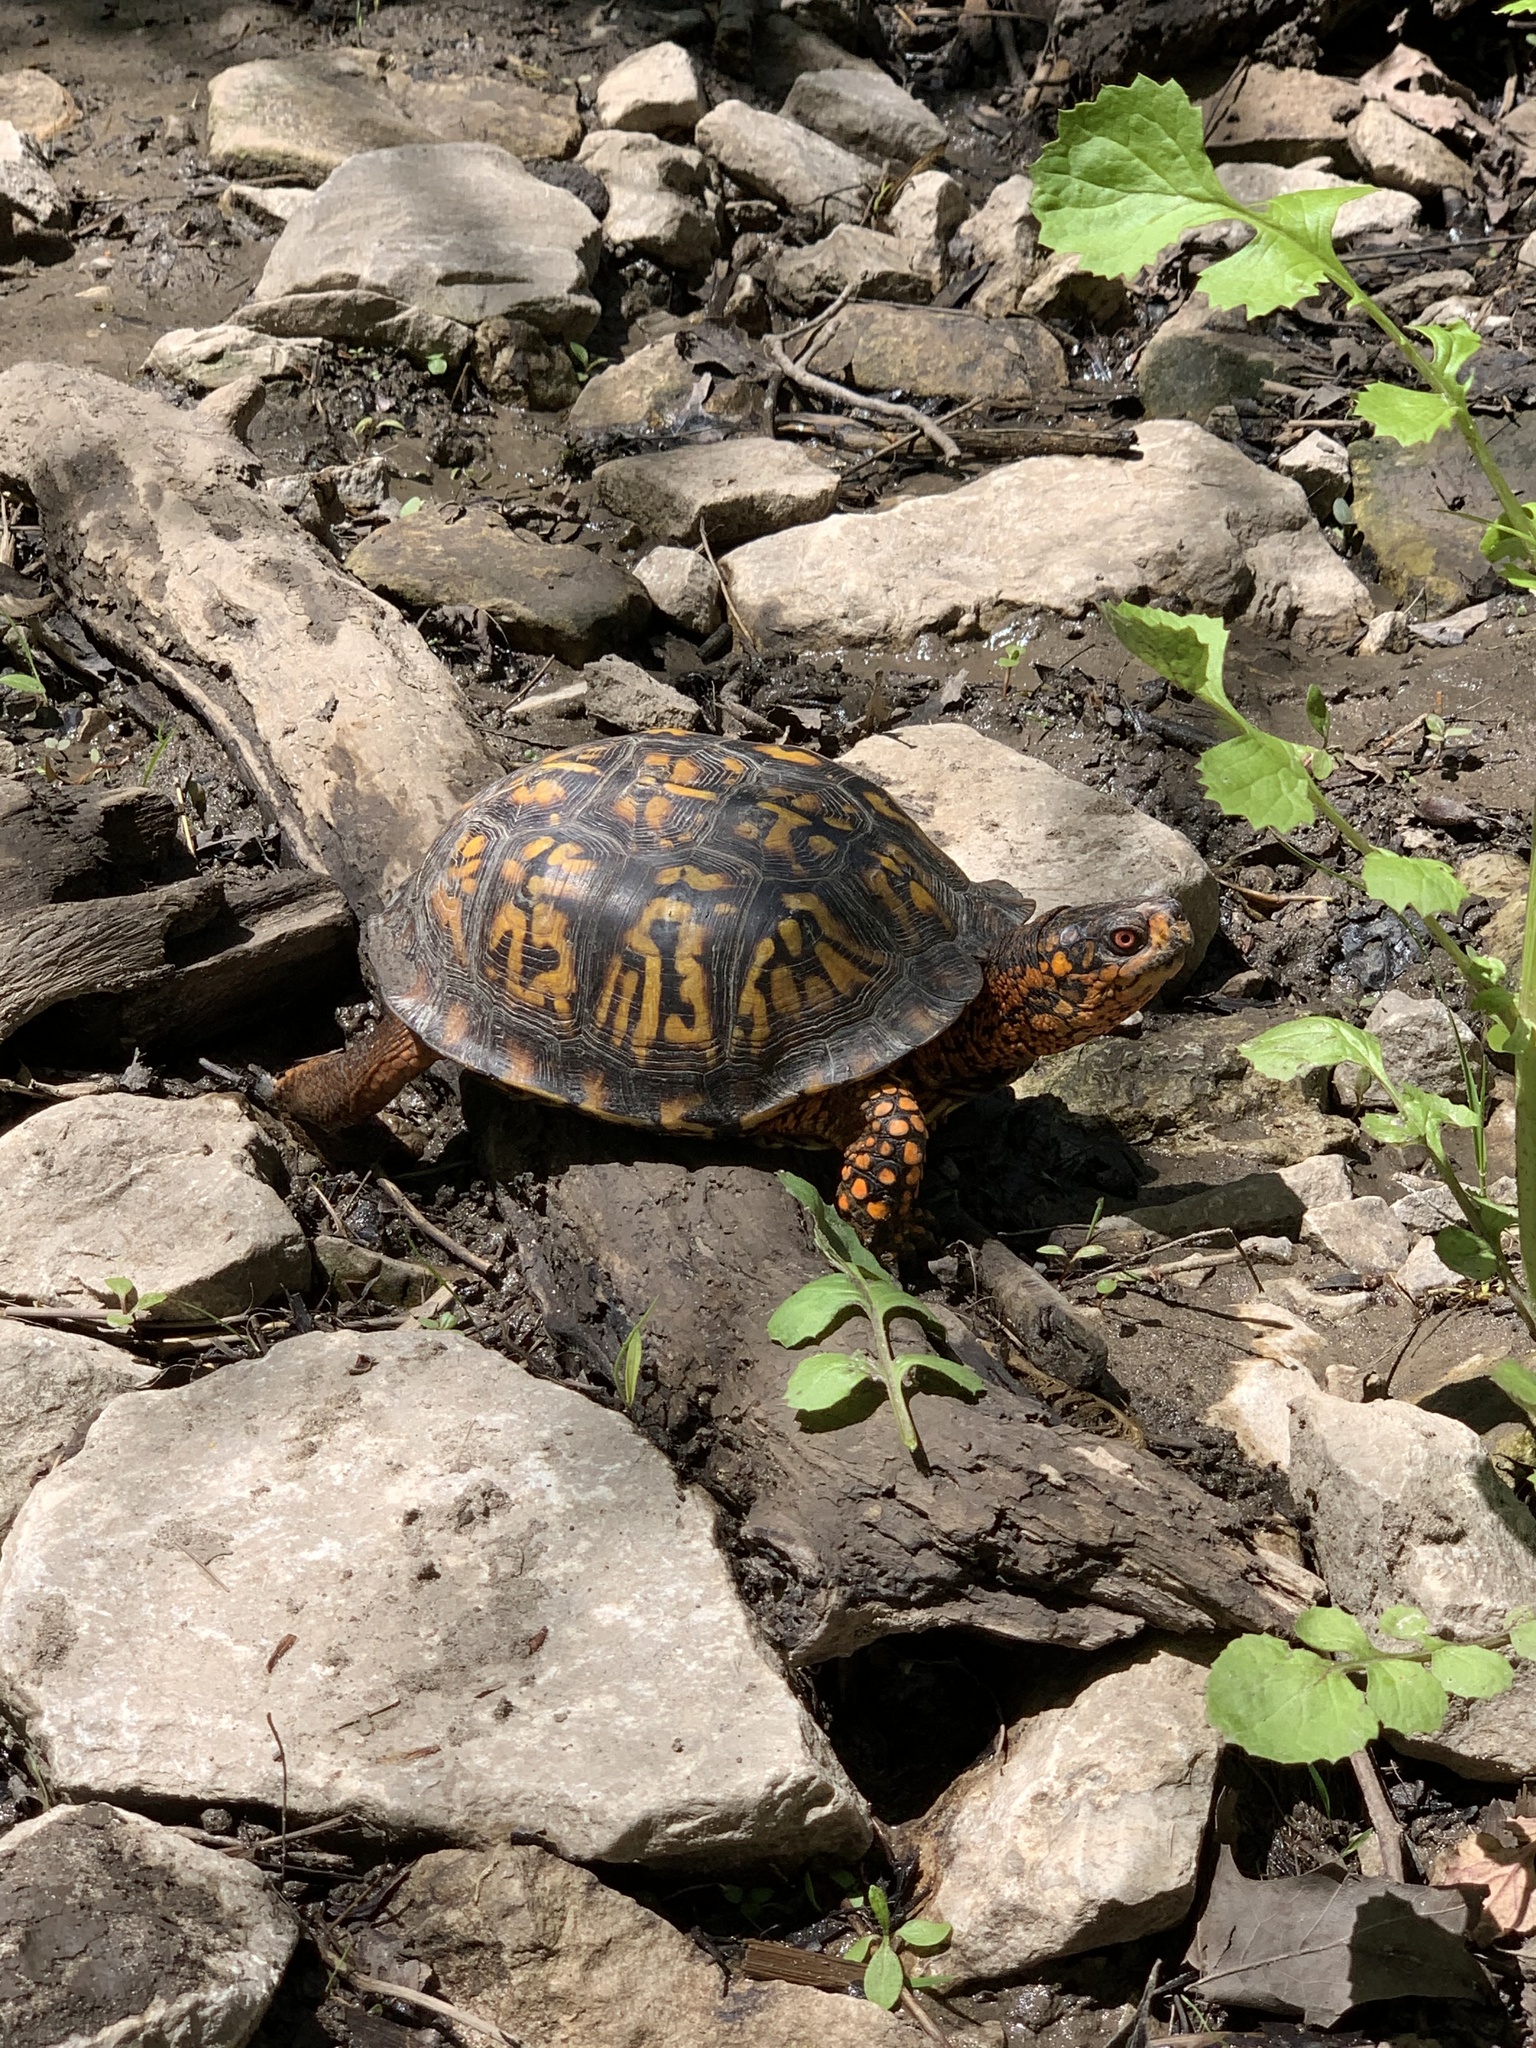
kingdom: Animalia
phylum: Chordata
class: Testudines
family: Emydidae
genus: Terrapene
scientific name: Terrapene carolina
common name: Common box turtle
